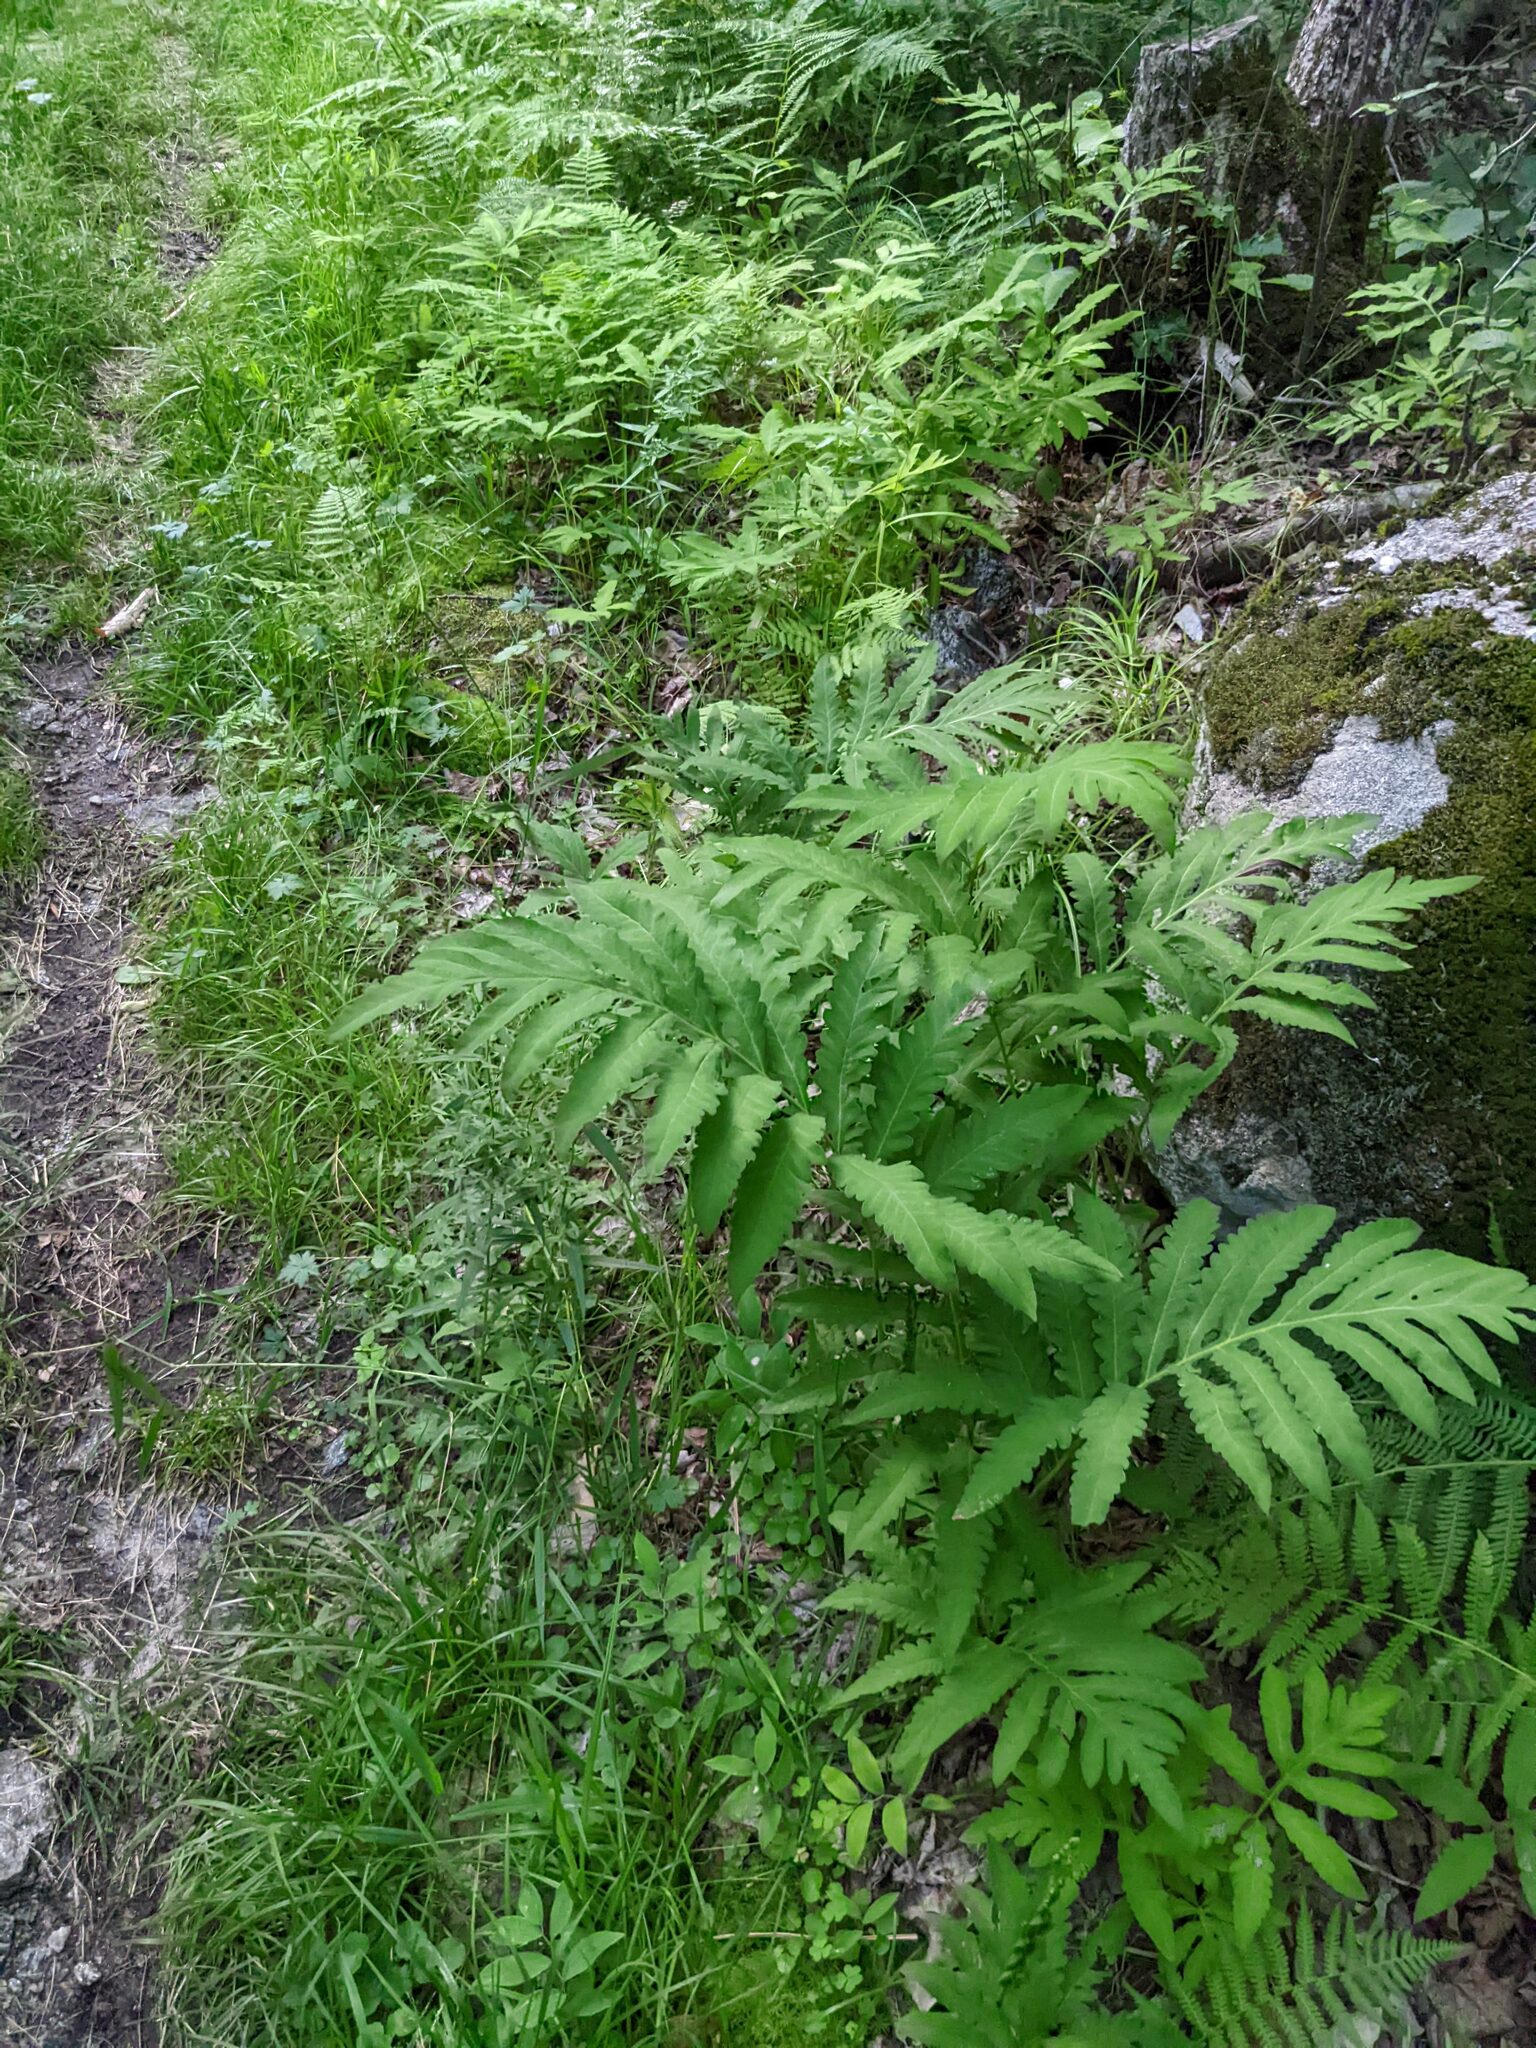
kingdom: Plantae
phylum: Tracheophyta
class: Polypodiopsida
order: Polypodiales
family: Onocleaceae
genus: Onoclea
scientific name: Onoclea sensibilis
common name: Sensitive fern
